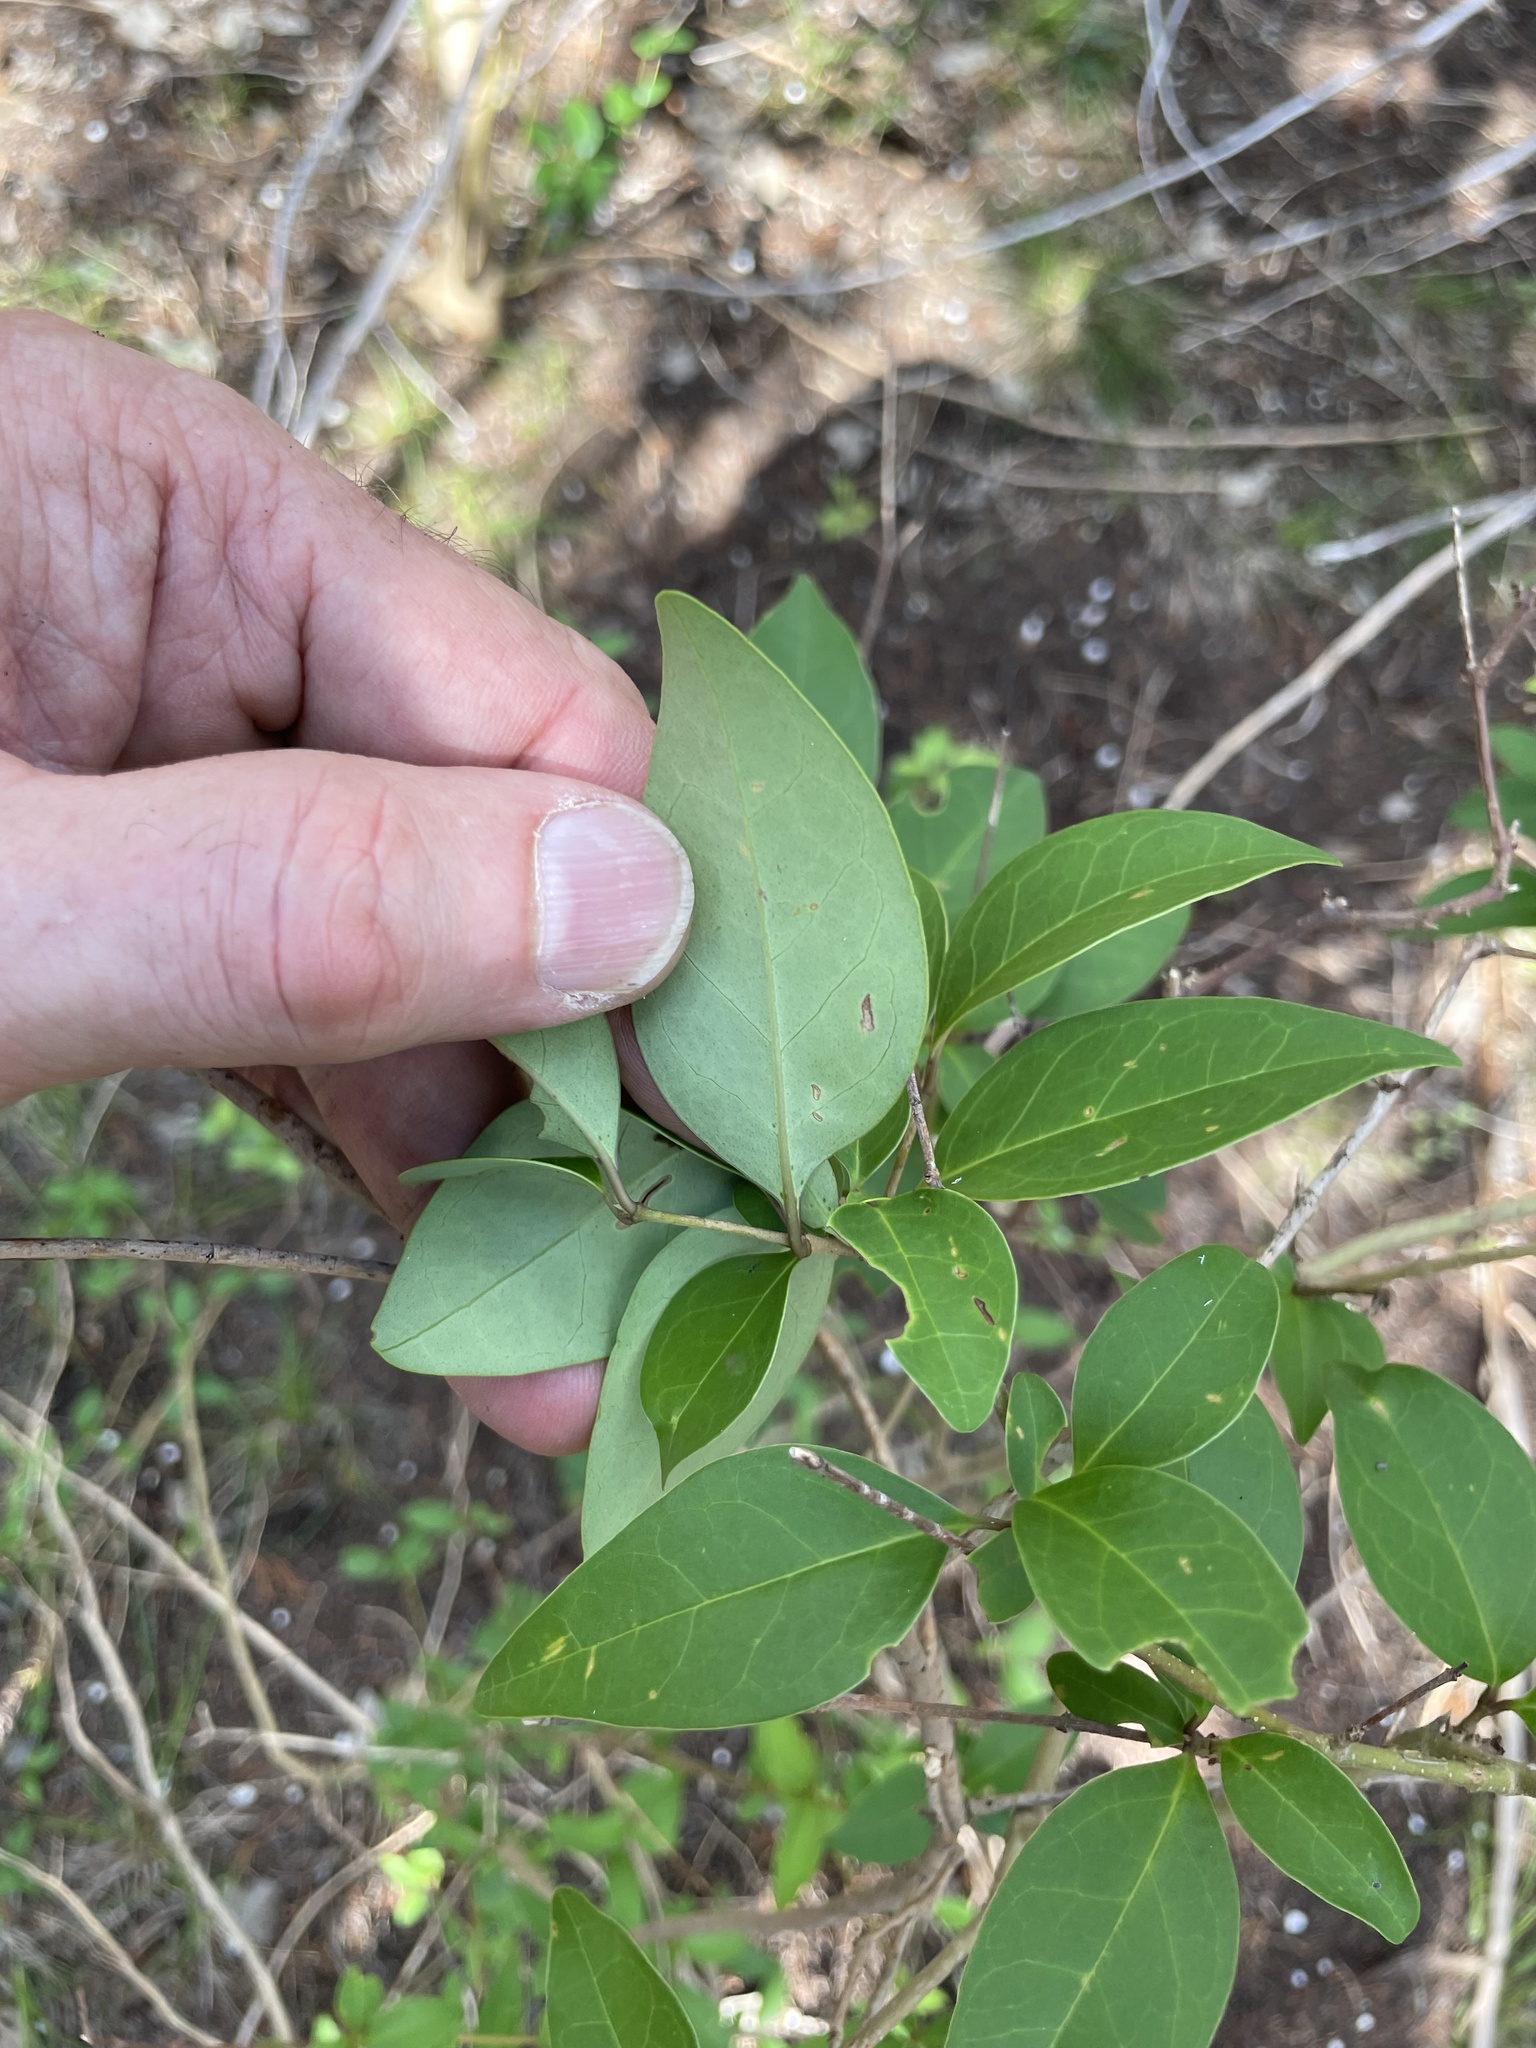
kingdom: Plantae
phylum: Tracheophyta
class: Magnoliopsida
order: Lamiales
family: Oleaceae
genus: Ligustrum
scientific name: Ligustrum lucidum
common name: Glossy privet
